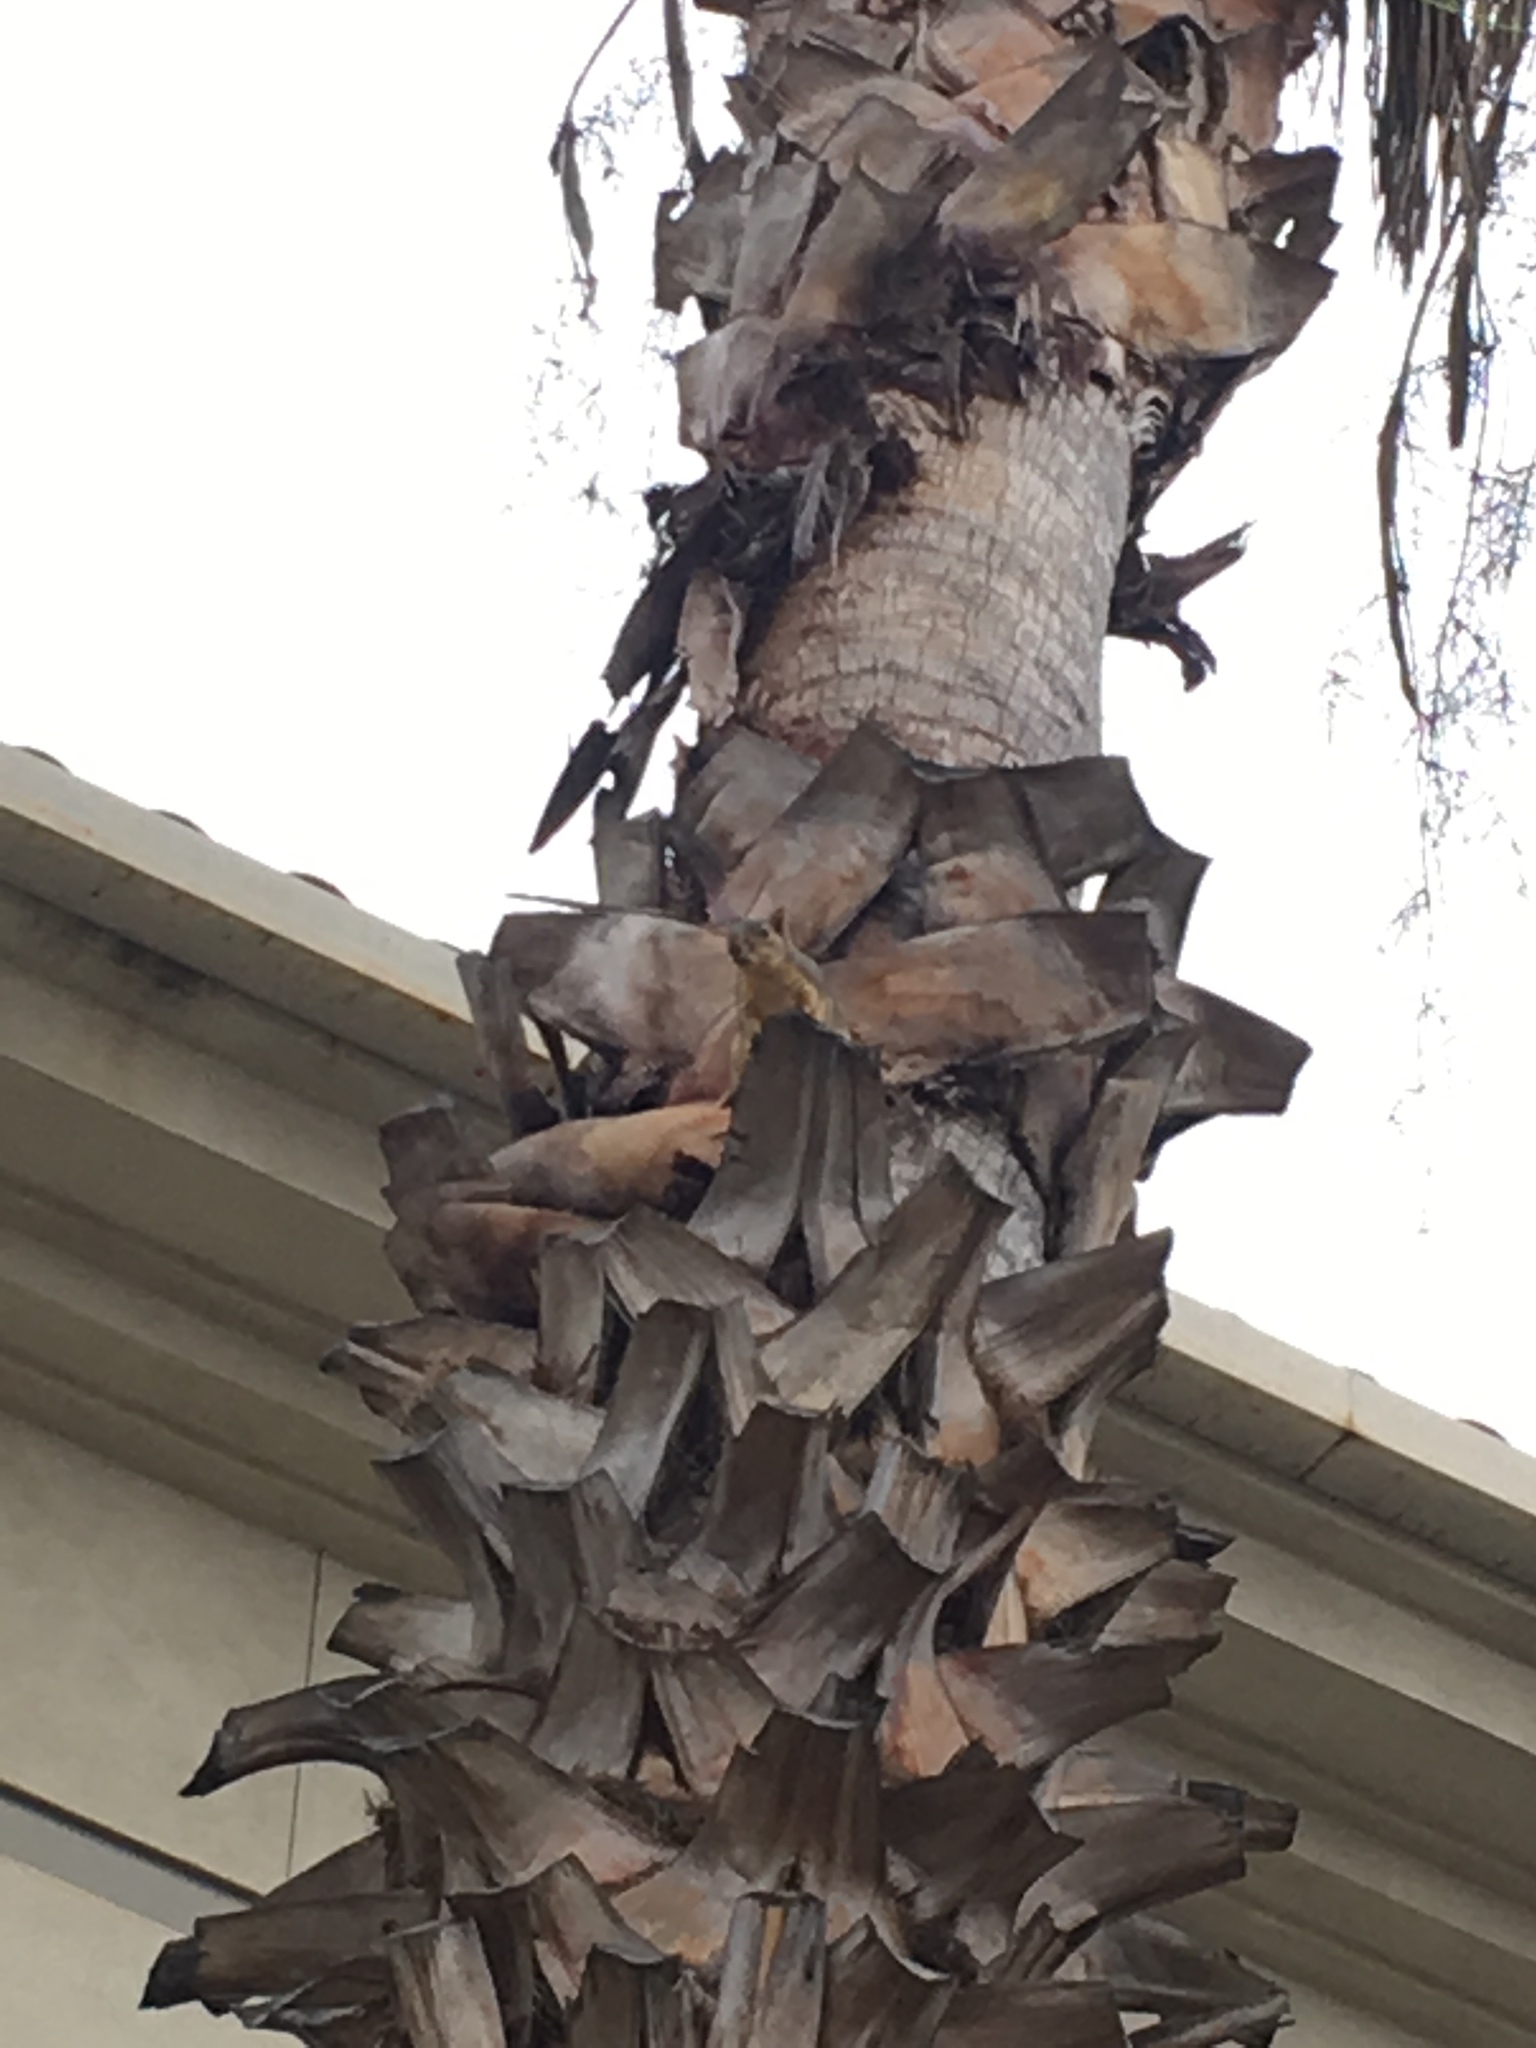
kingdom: Animalia
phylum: Chordata
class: Mammalia
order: Rodentia
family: Sciuridae
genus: Sciurus
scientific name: Sciurus niger
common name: Fox squirrel
